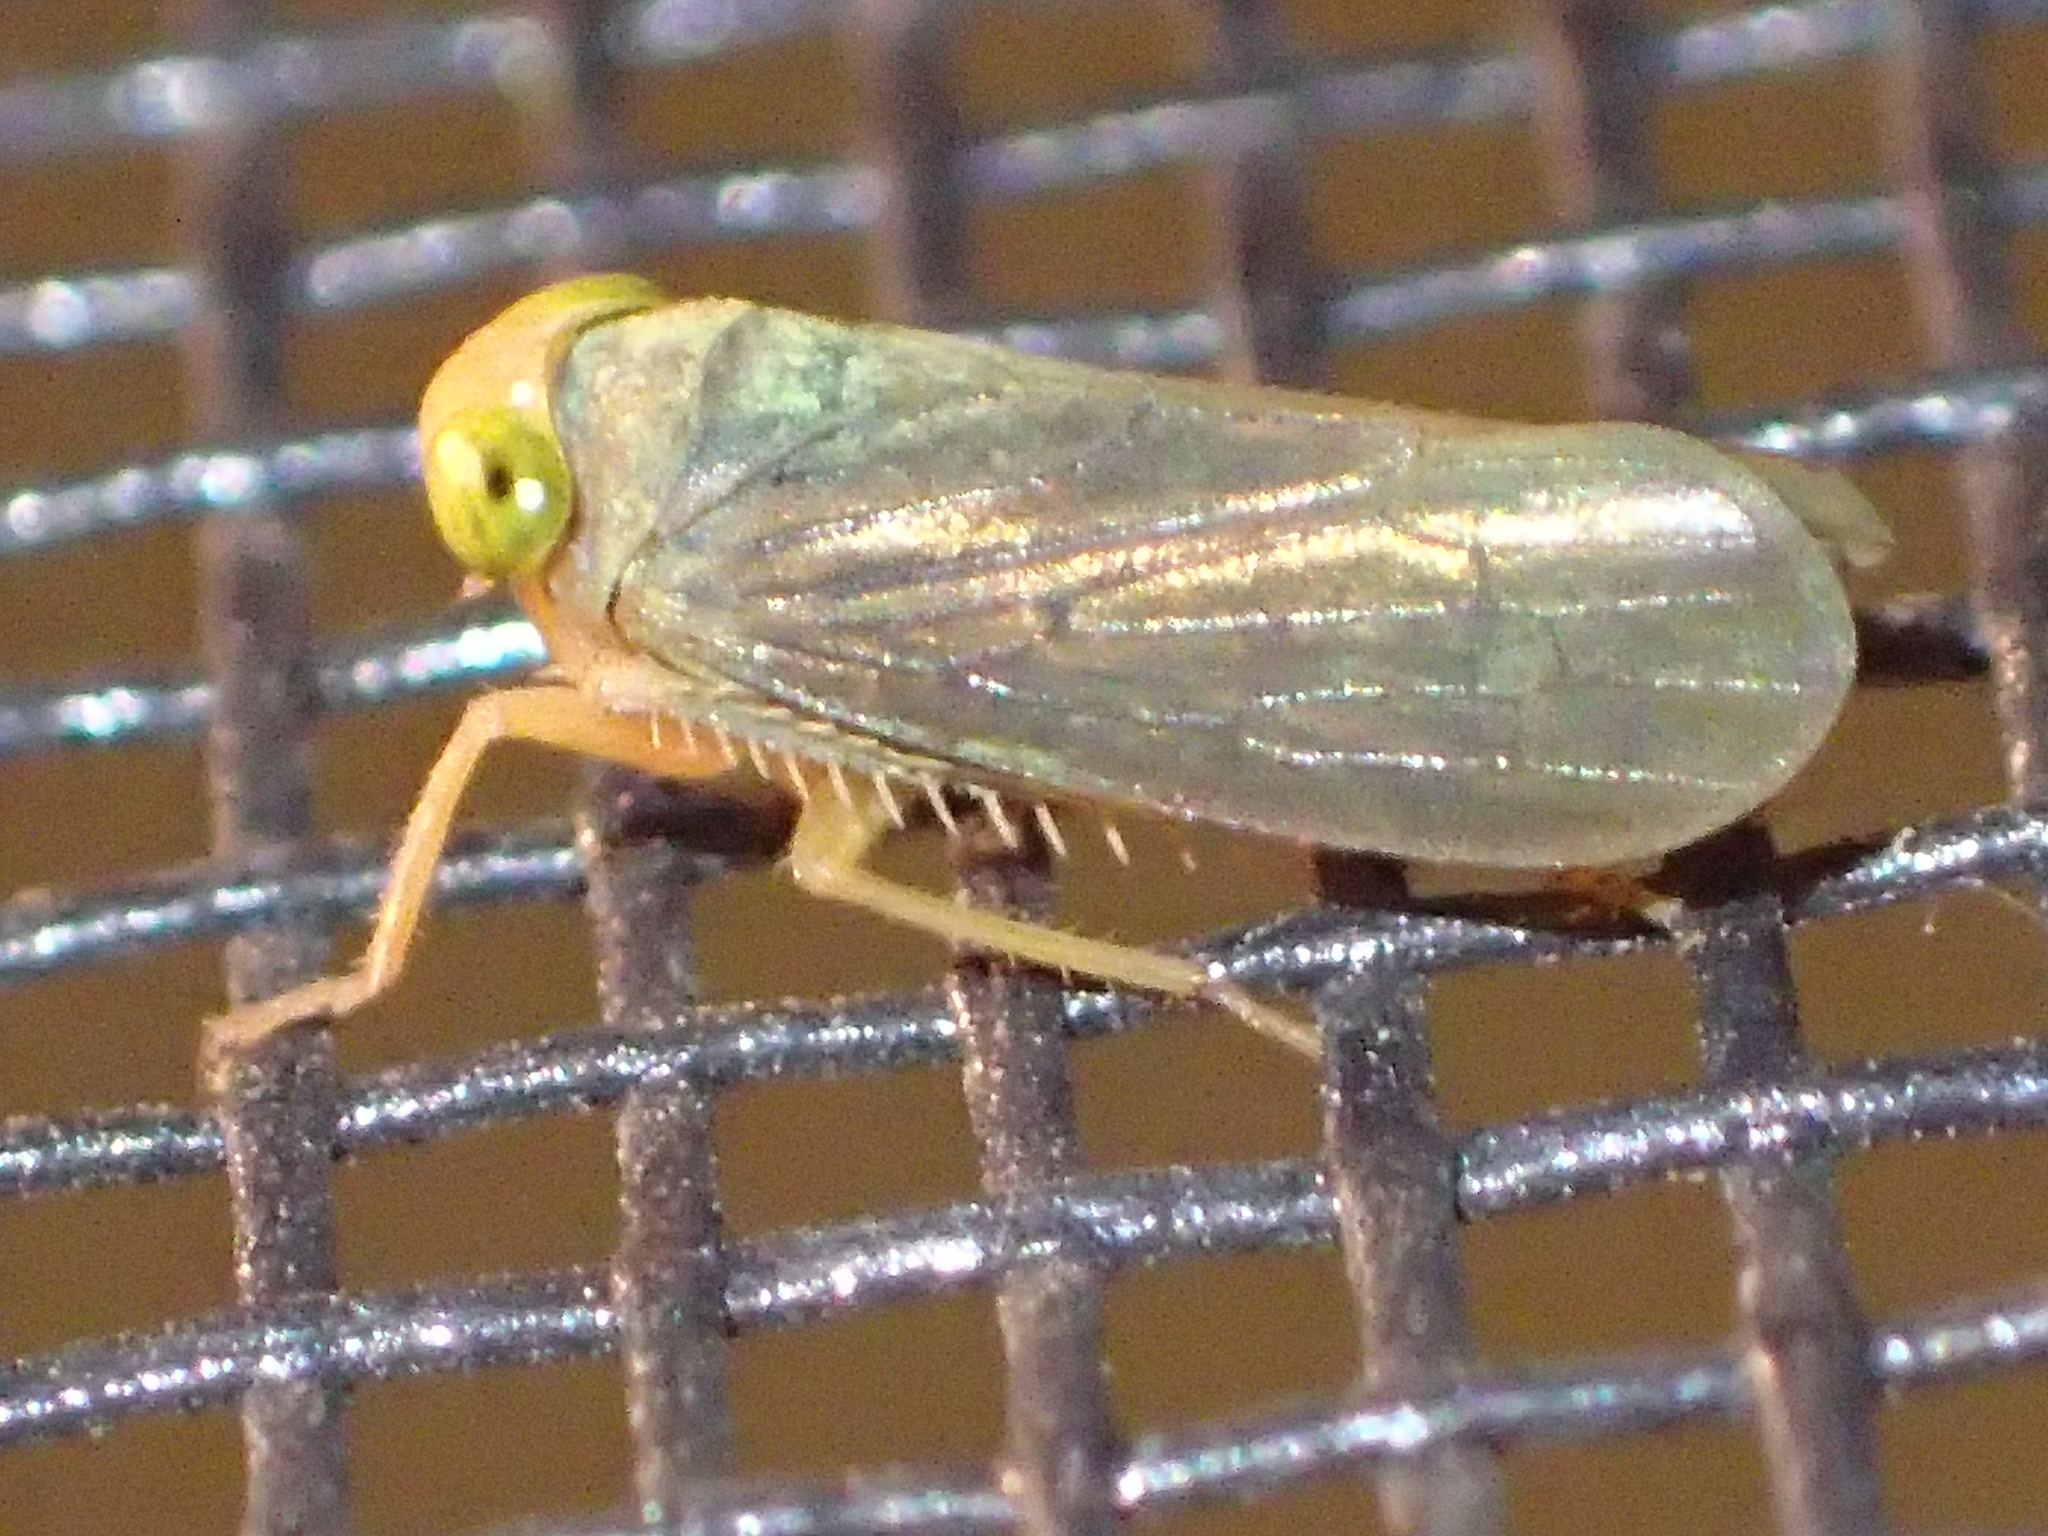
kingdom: Animalia
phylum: Arthropoda
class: Insecta
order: Hemiptera
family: Cicadellidae
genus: Jikradia
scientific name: Jikradia olitoria
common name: Coppery leafhopper
